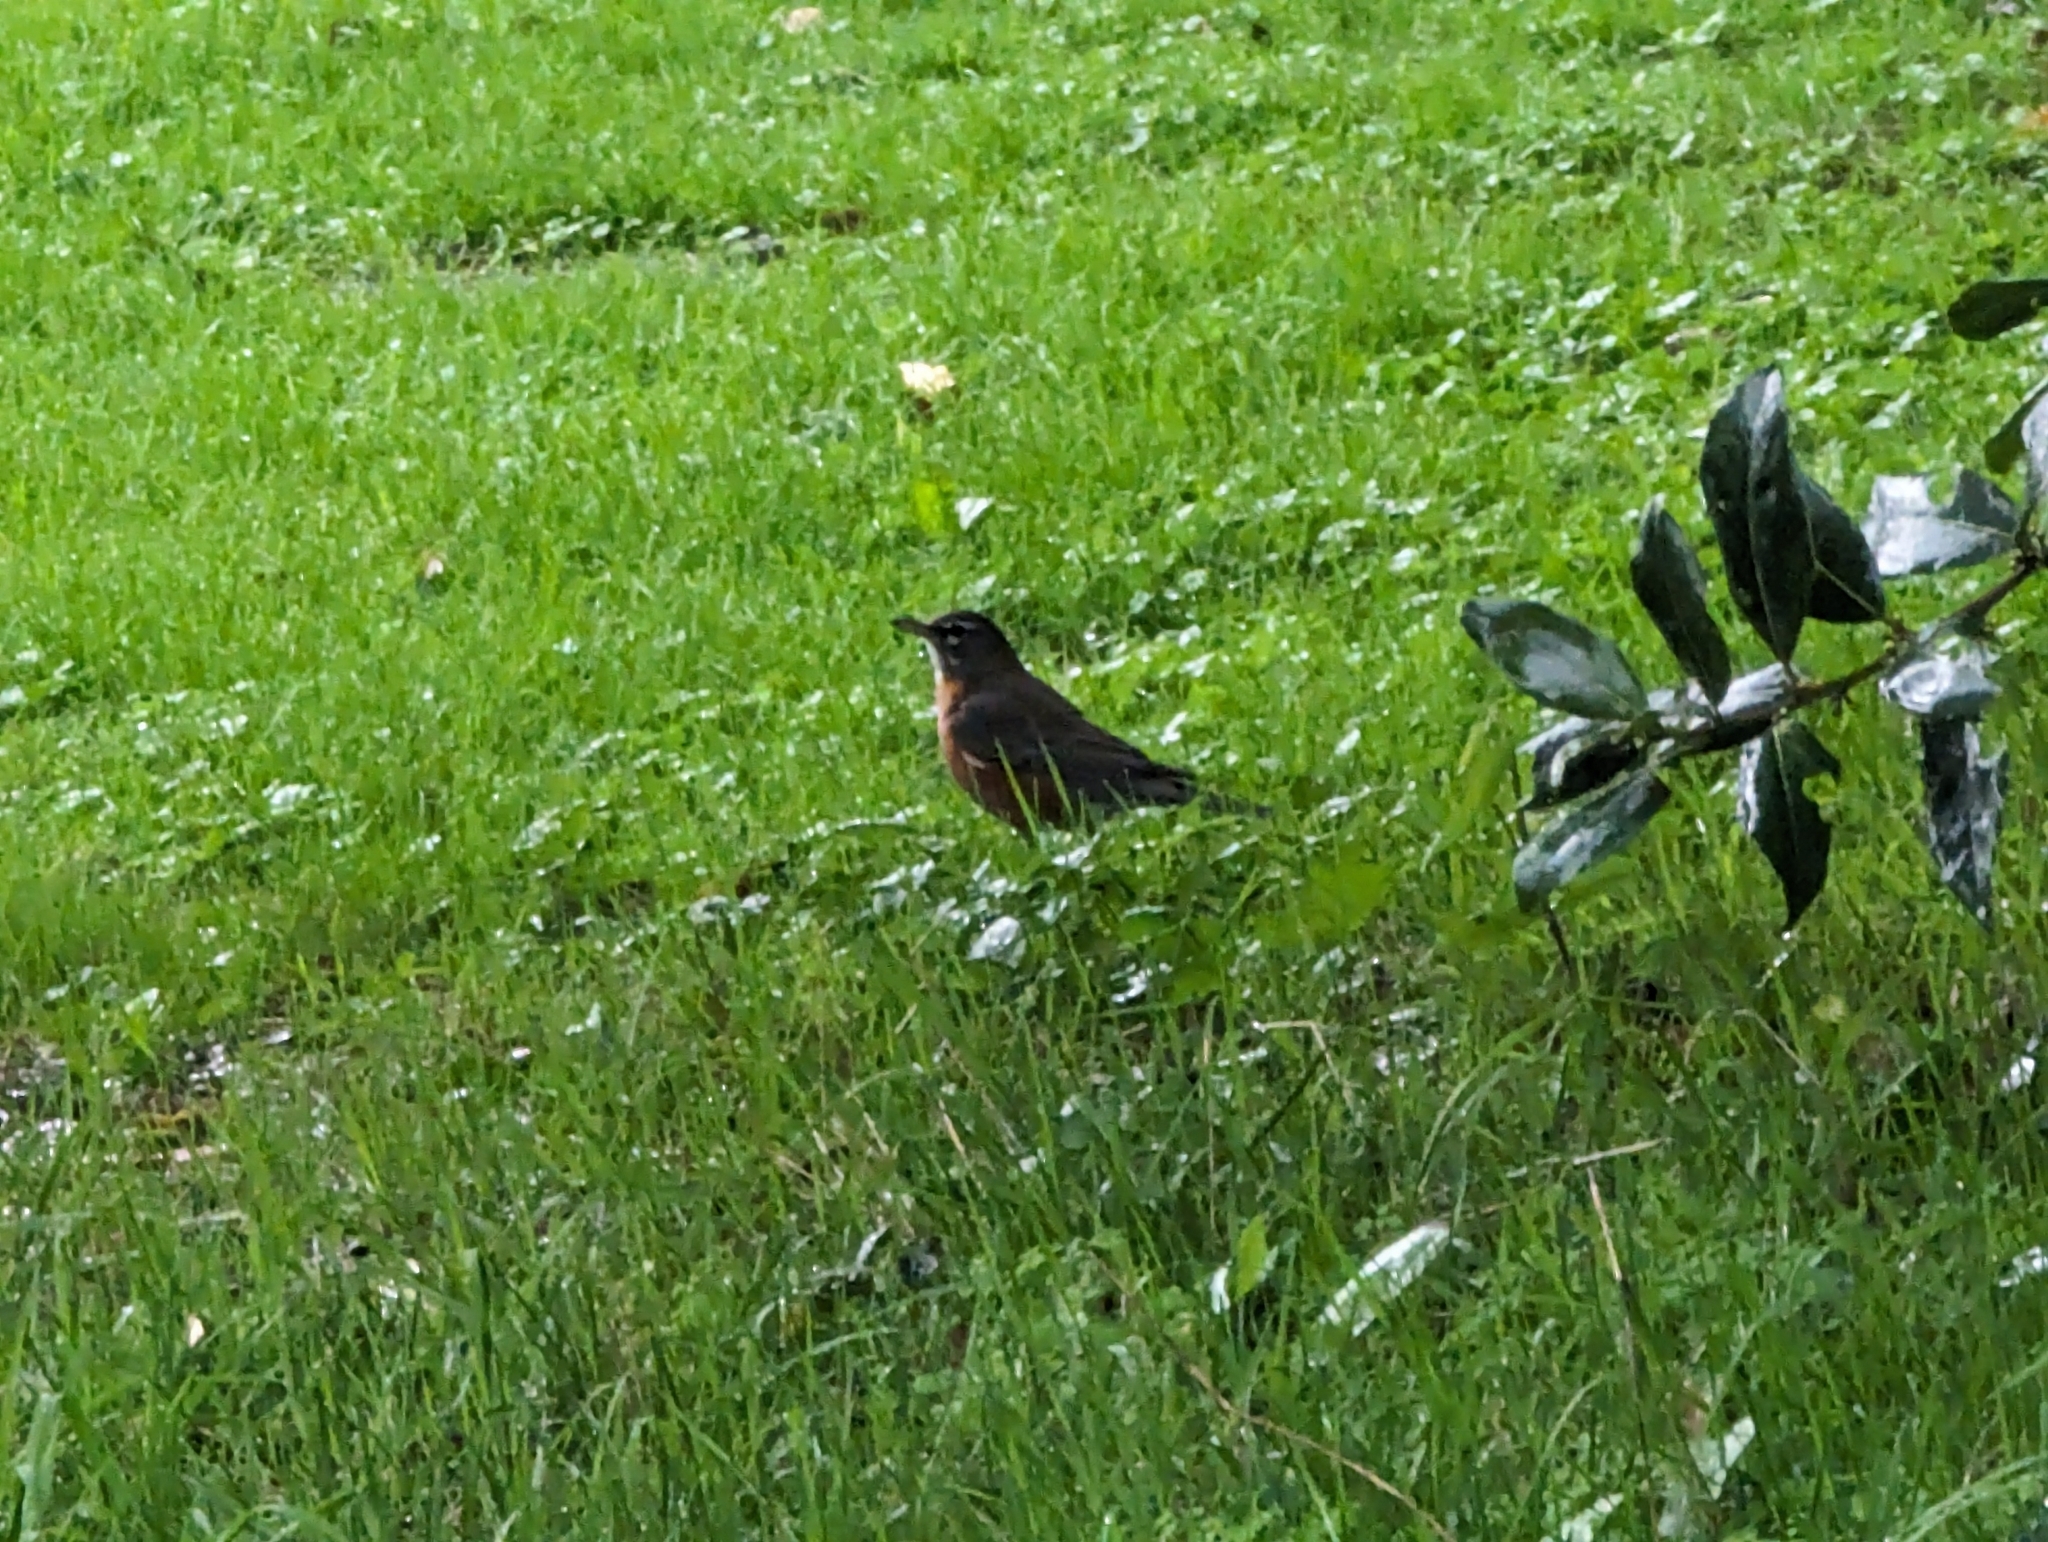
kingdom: Animalia
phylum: Chordata
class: Aves
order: Passeriformes
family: Turdidae
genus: Turdus
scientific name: Turdus migratorius
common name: American robin
